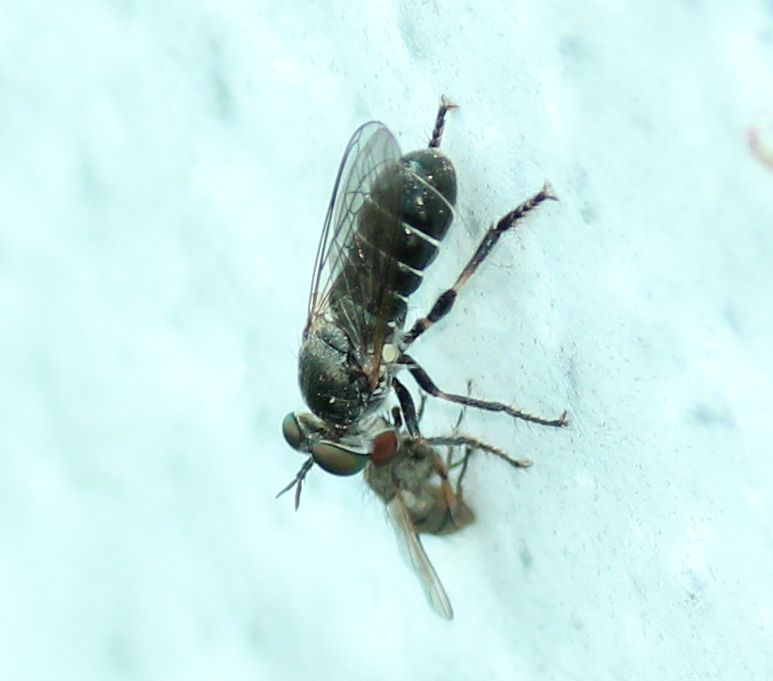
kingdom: Animalia
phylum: Arthropoda
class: Insecta
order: Diptera
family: Asilidae
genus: Atomosia
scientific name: Atomosia puella
